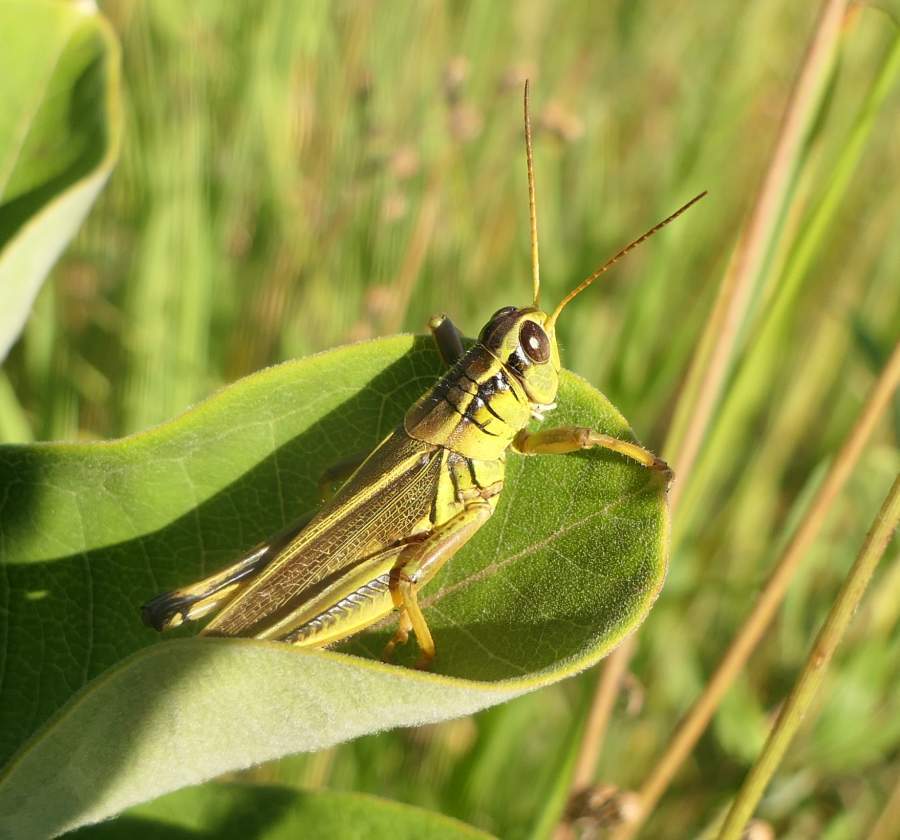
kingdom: Animalia
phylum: Arthropoda
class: Insecta
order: Orthoptera
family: Acrididae
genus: Melanoplus
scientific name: Melanoplus bivittatus
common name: Two-striped grasshopper
